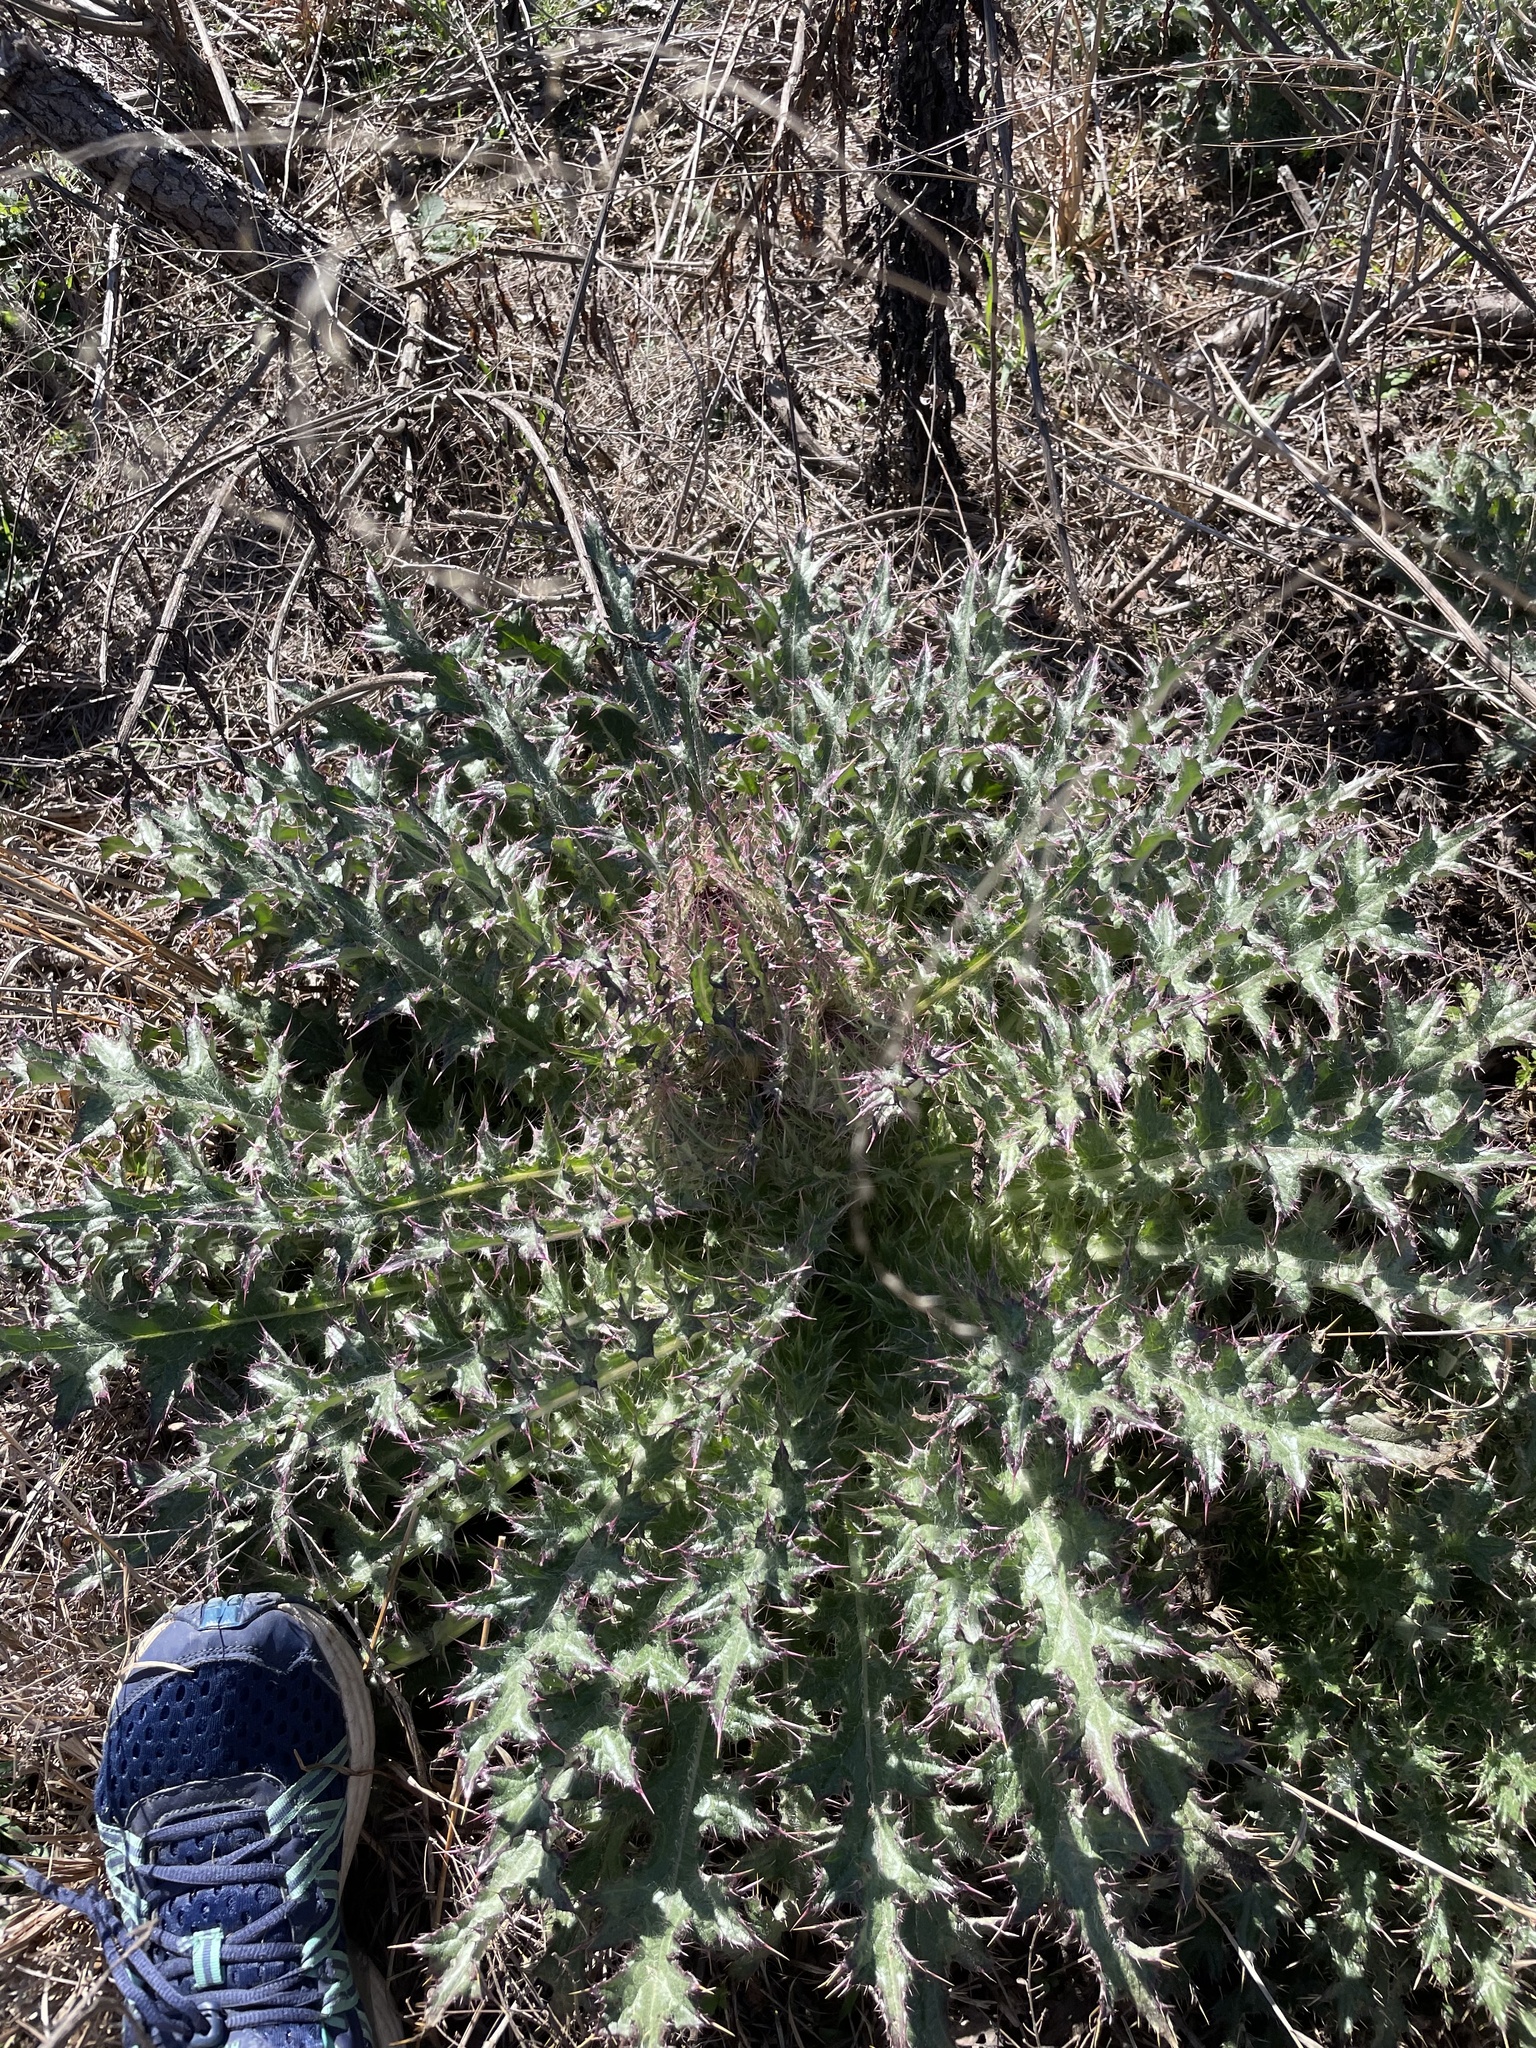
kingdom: Plantae
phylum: Tracheophyta
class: Magnoliopsida
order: Asterales
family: Asteraceae
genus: Cirsium
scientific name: Cirsium horridulum
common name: Bristly thistle
